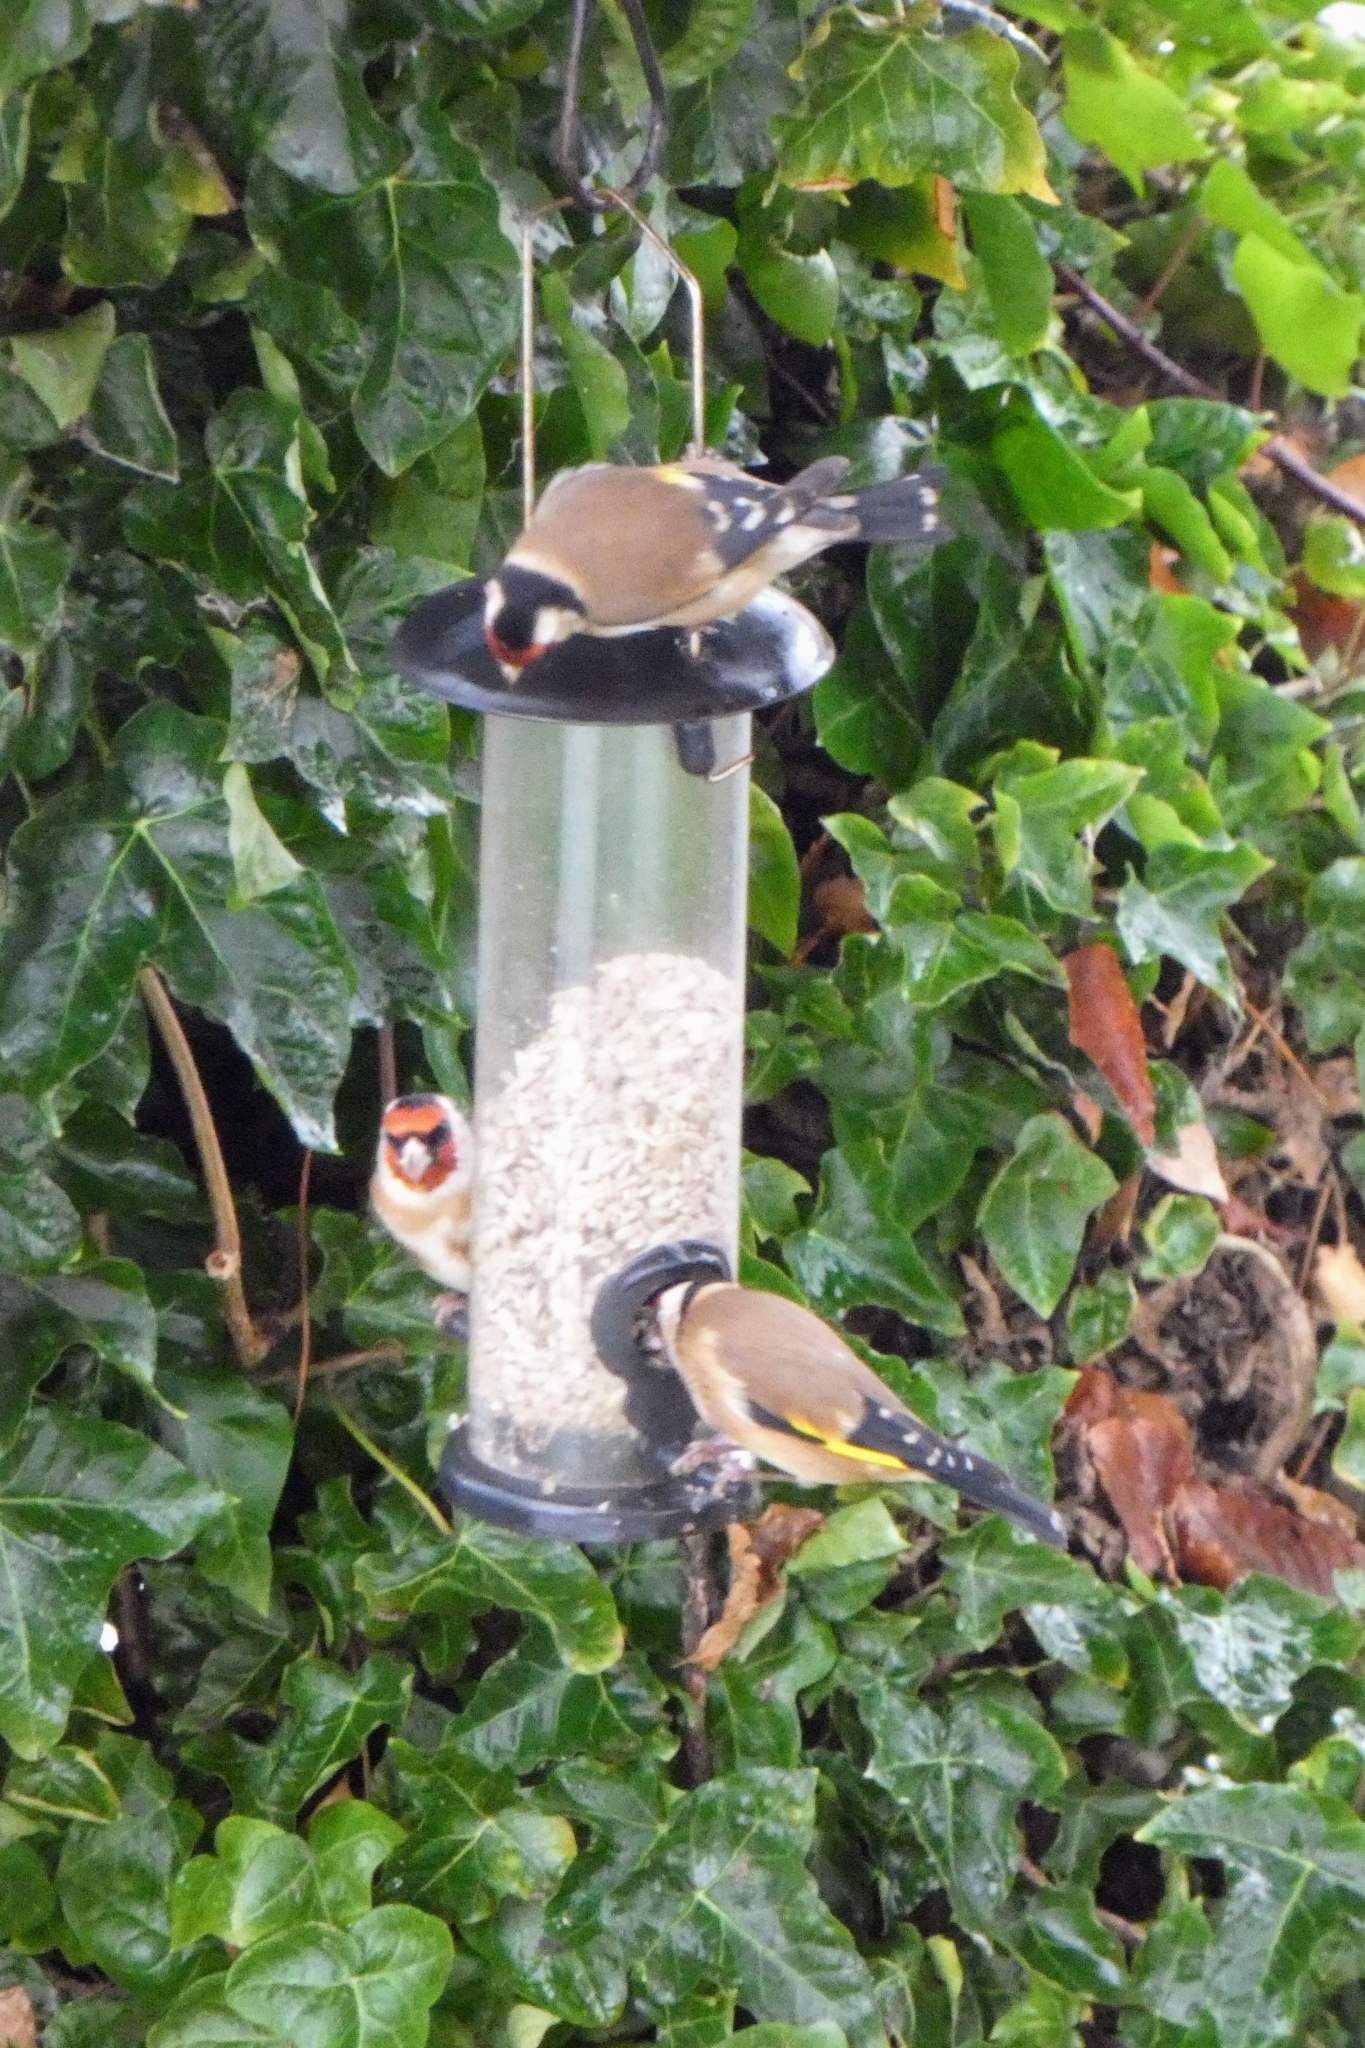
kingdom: Animalia
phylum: Chordata
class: Aves
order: Passeriformes
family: Fringillidae
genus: Carduelis
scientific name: Carduelis carduelis
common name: European goldfinch
